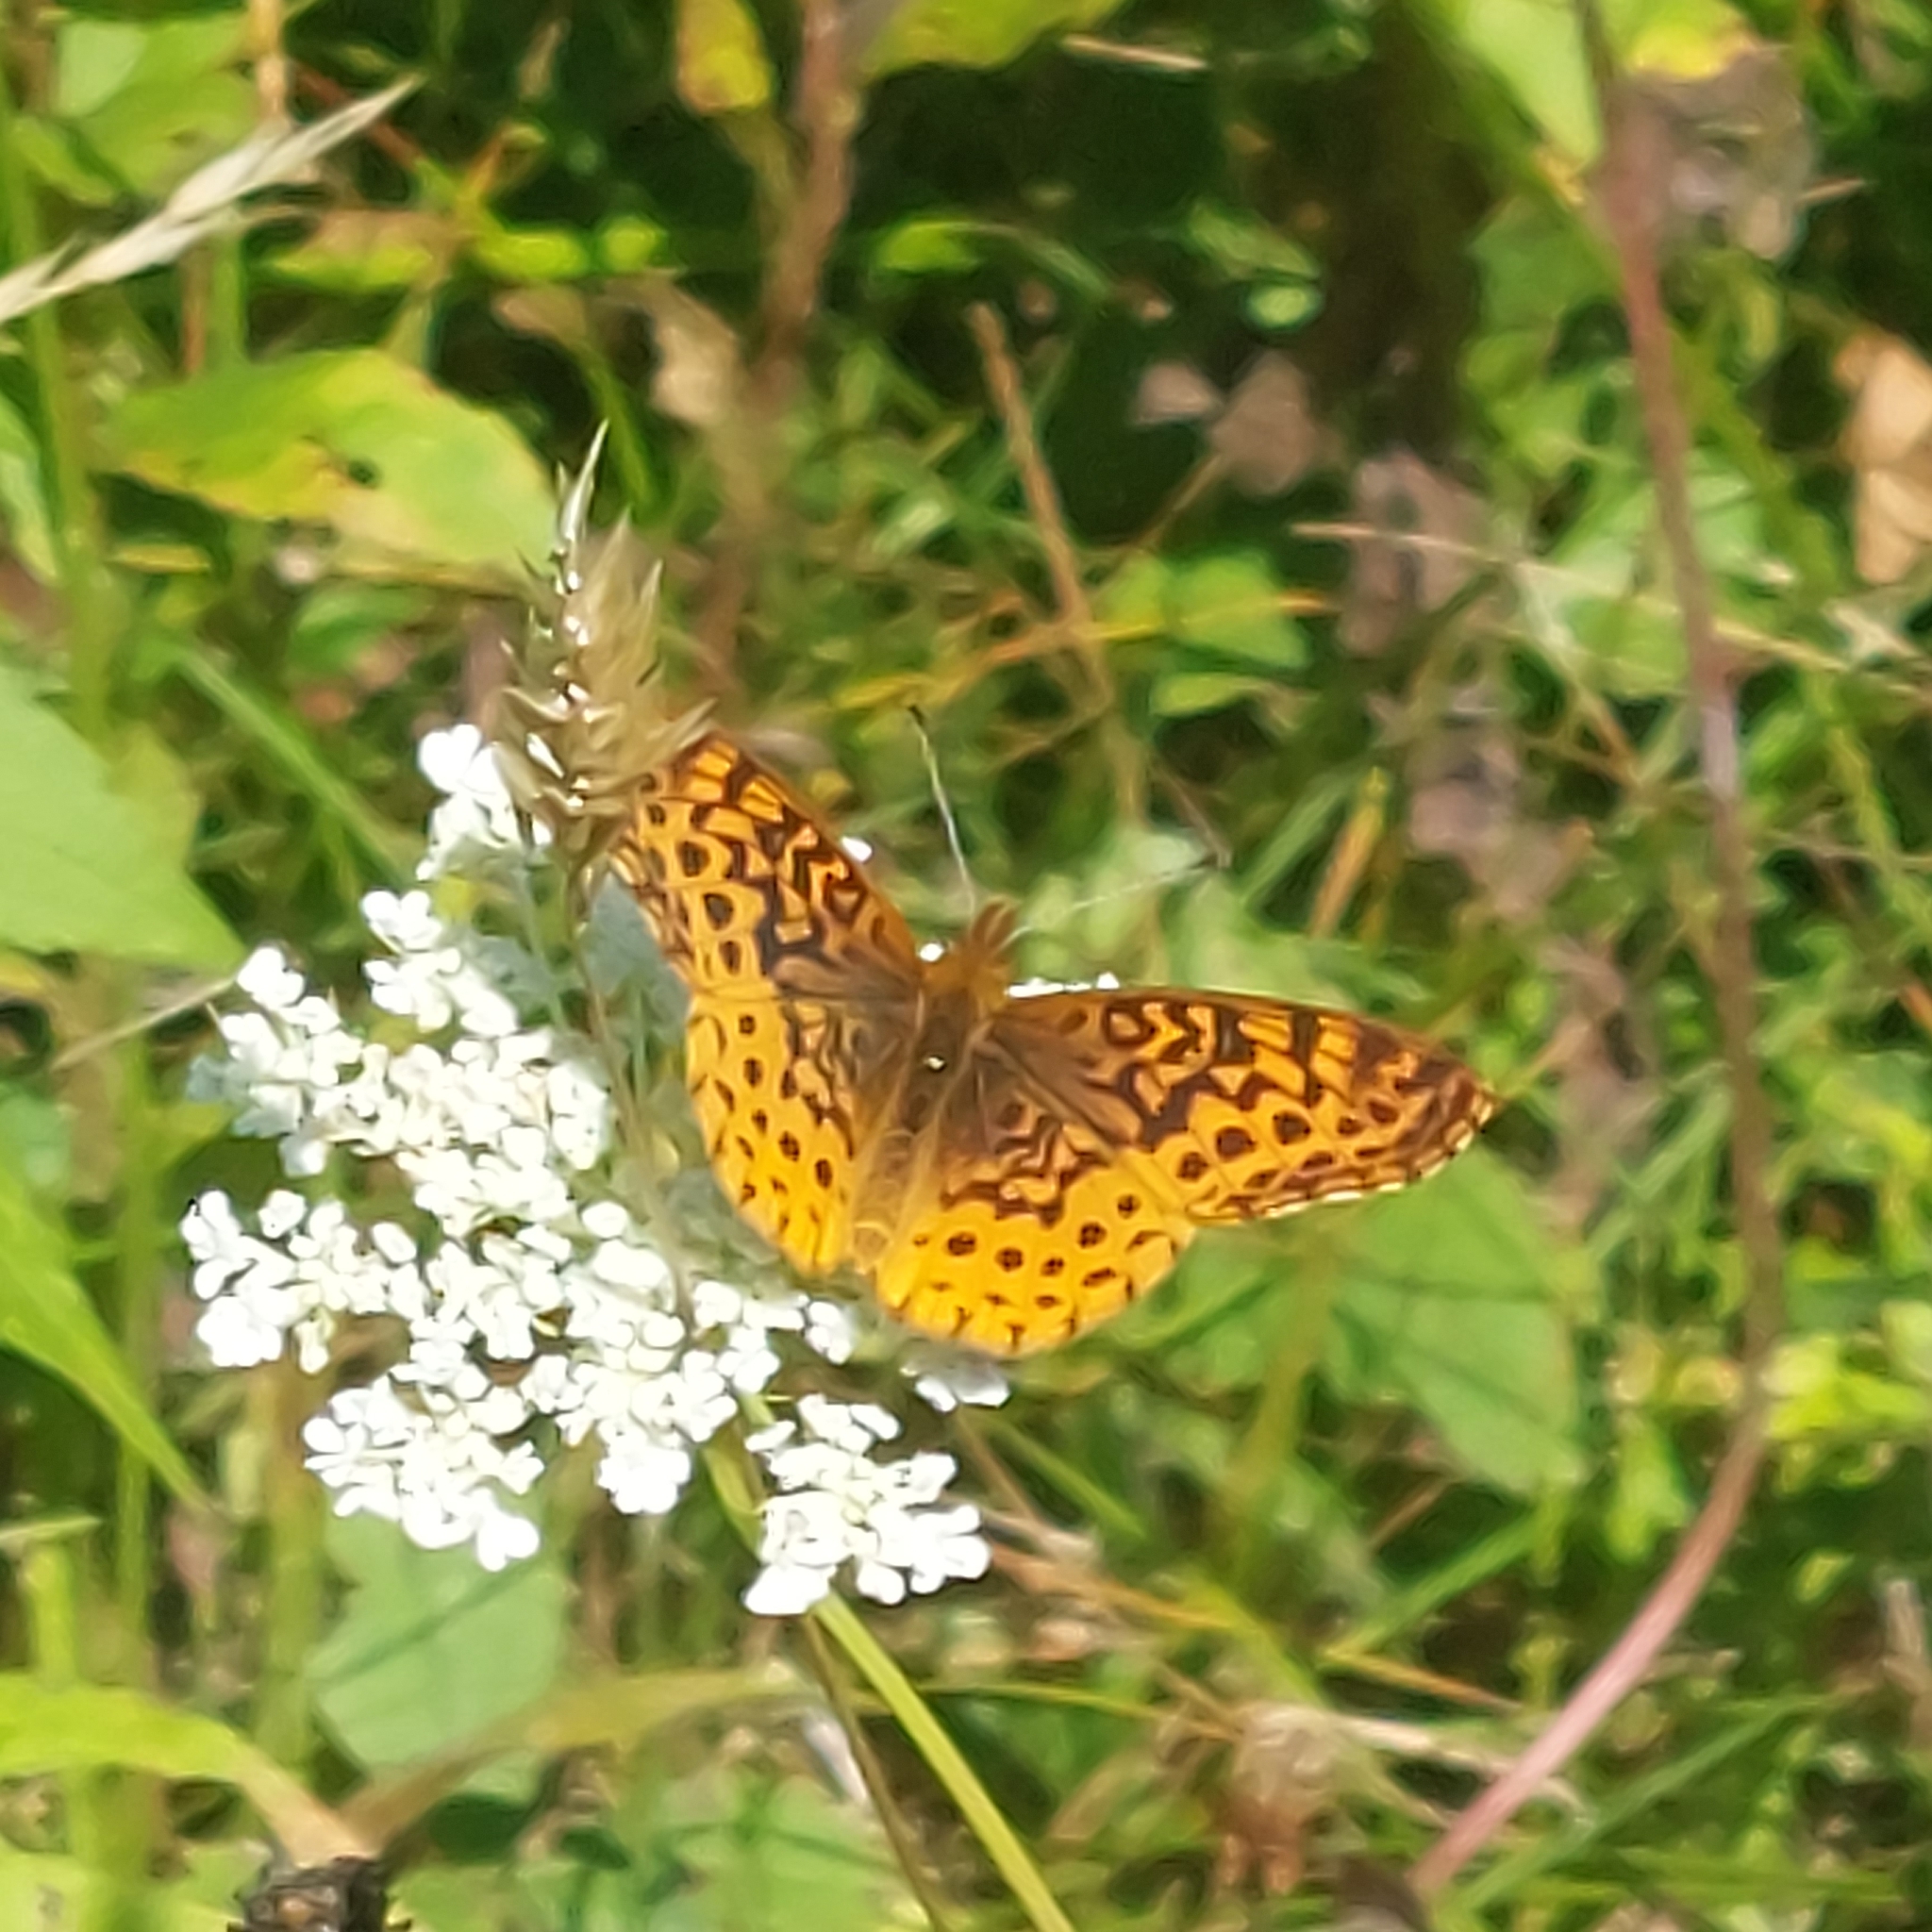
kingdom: Animalia
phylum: Arthropoda
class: Insecta
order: Lepidoptera
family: Nymphalidae
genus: Clossiana
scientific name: Clossiana toddi
